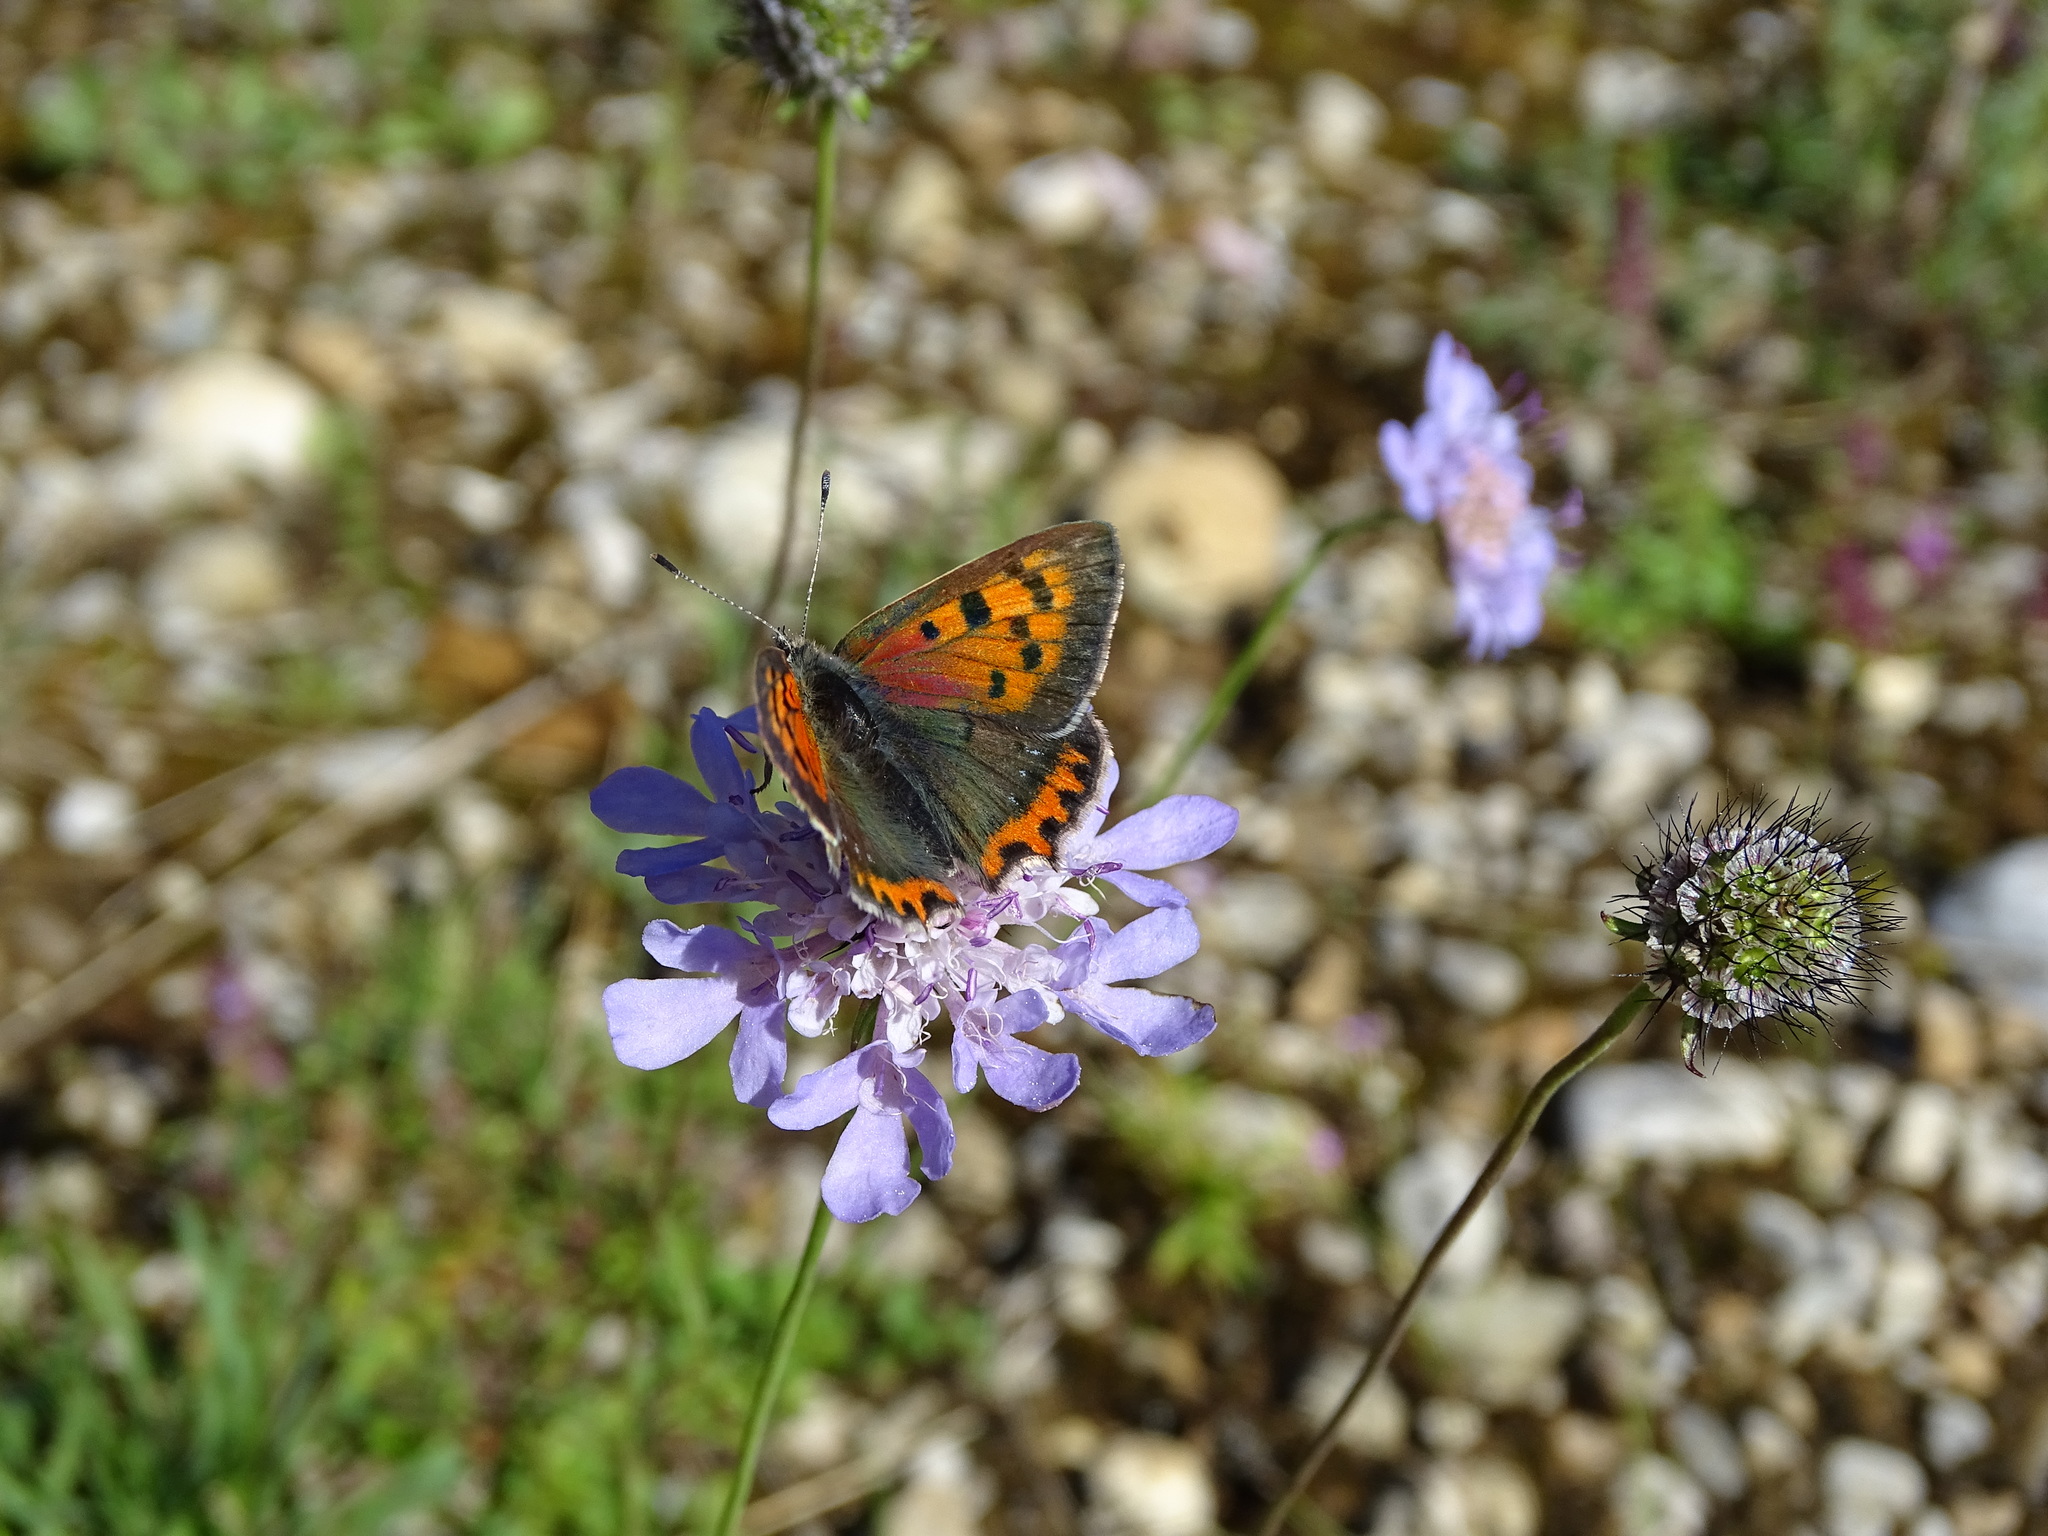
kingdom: Animalia
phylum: Arthropoda
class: Insecta
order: Lepidoptera
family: Lycaenidae
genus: Lycaena
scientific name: Lycaena phlaeas
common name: Small copper
